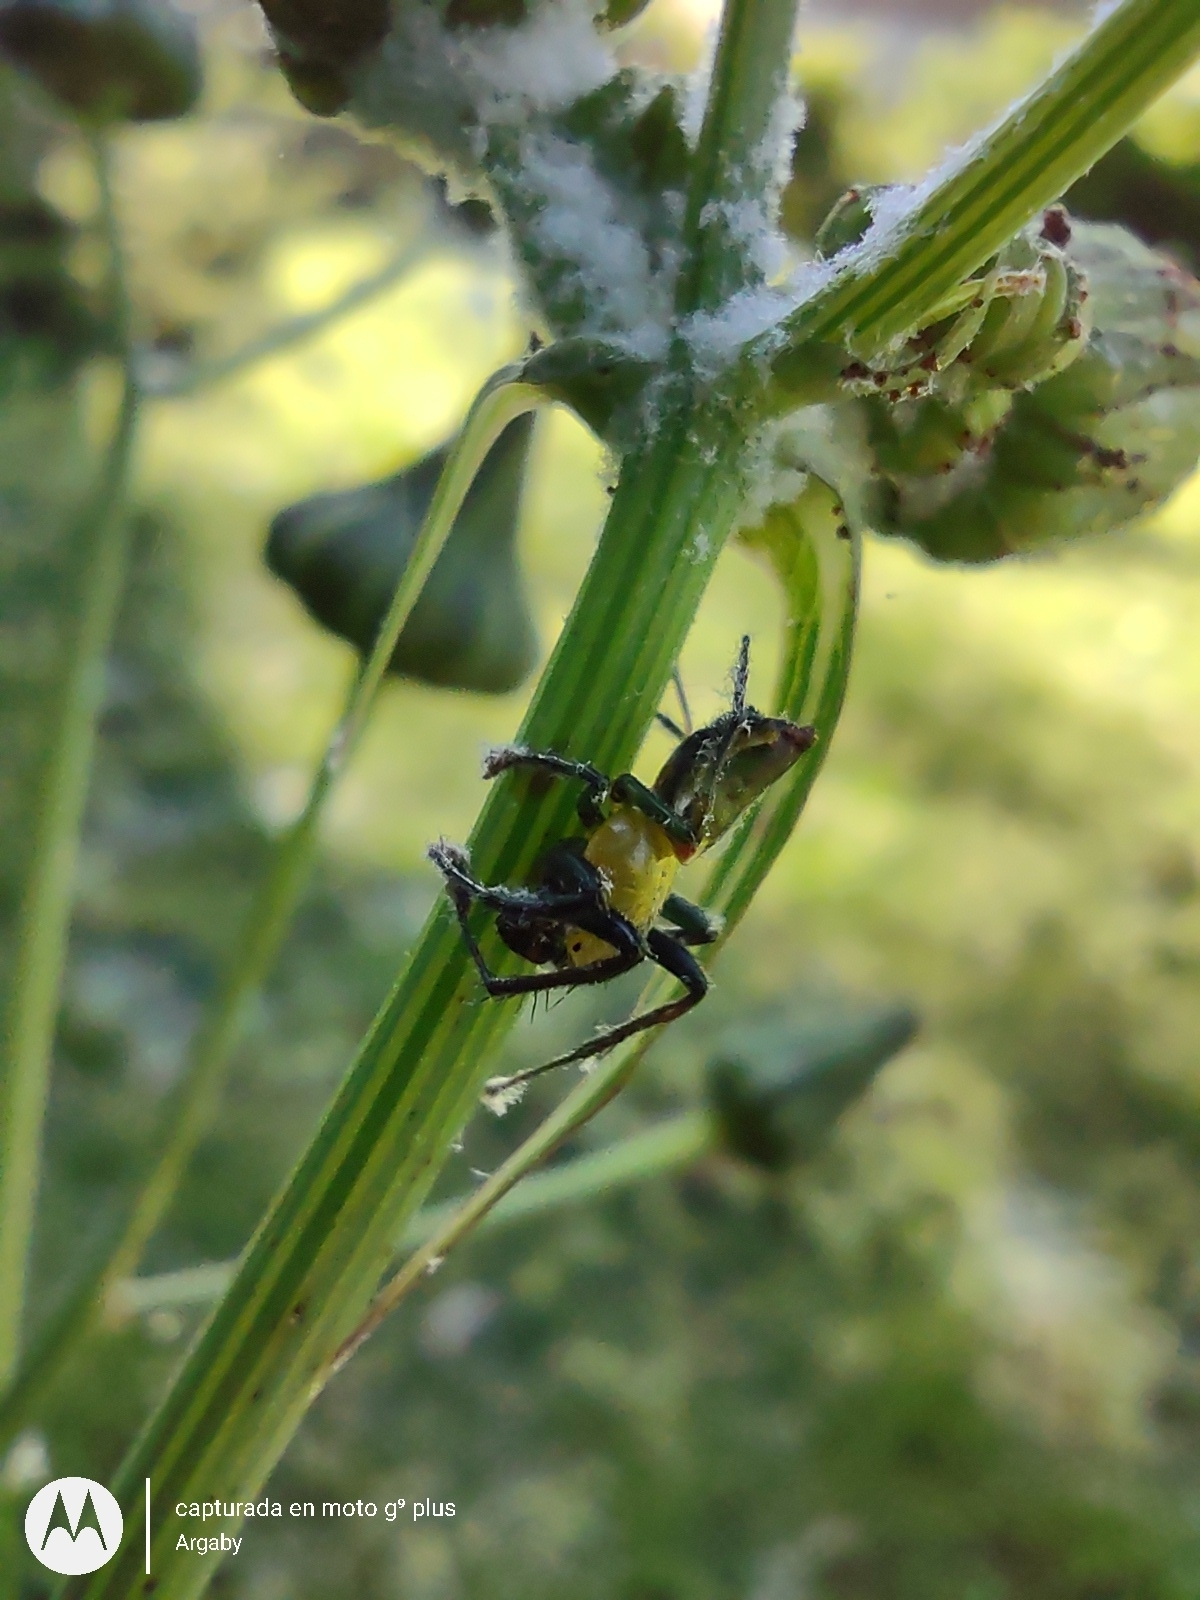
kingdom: Animalia
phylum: Arthropoda
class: Arachnida
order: Araneae
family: Araneidae
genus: Alpaida
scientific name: Alpaida costai
